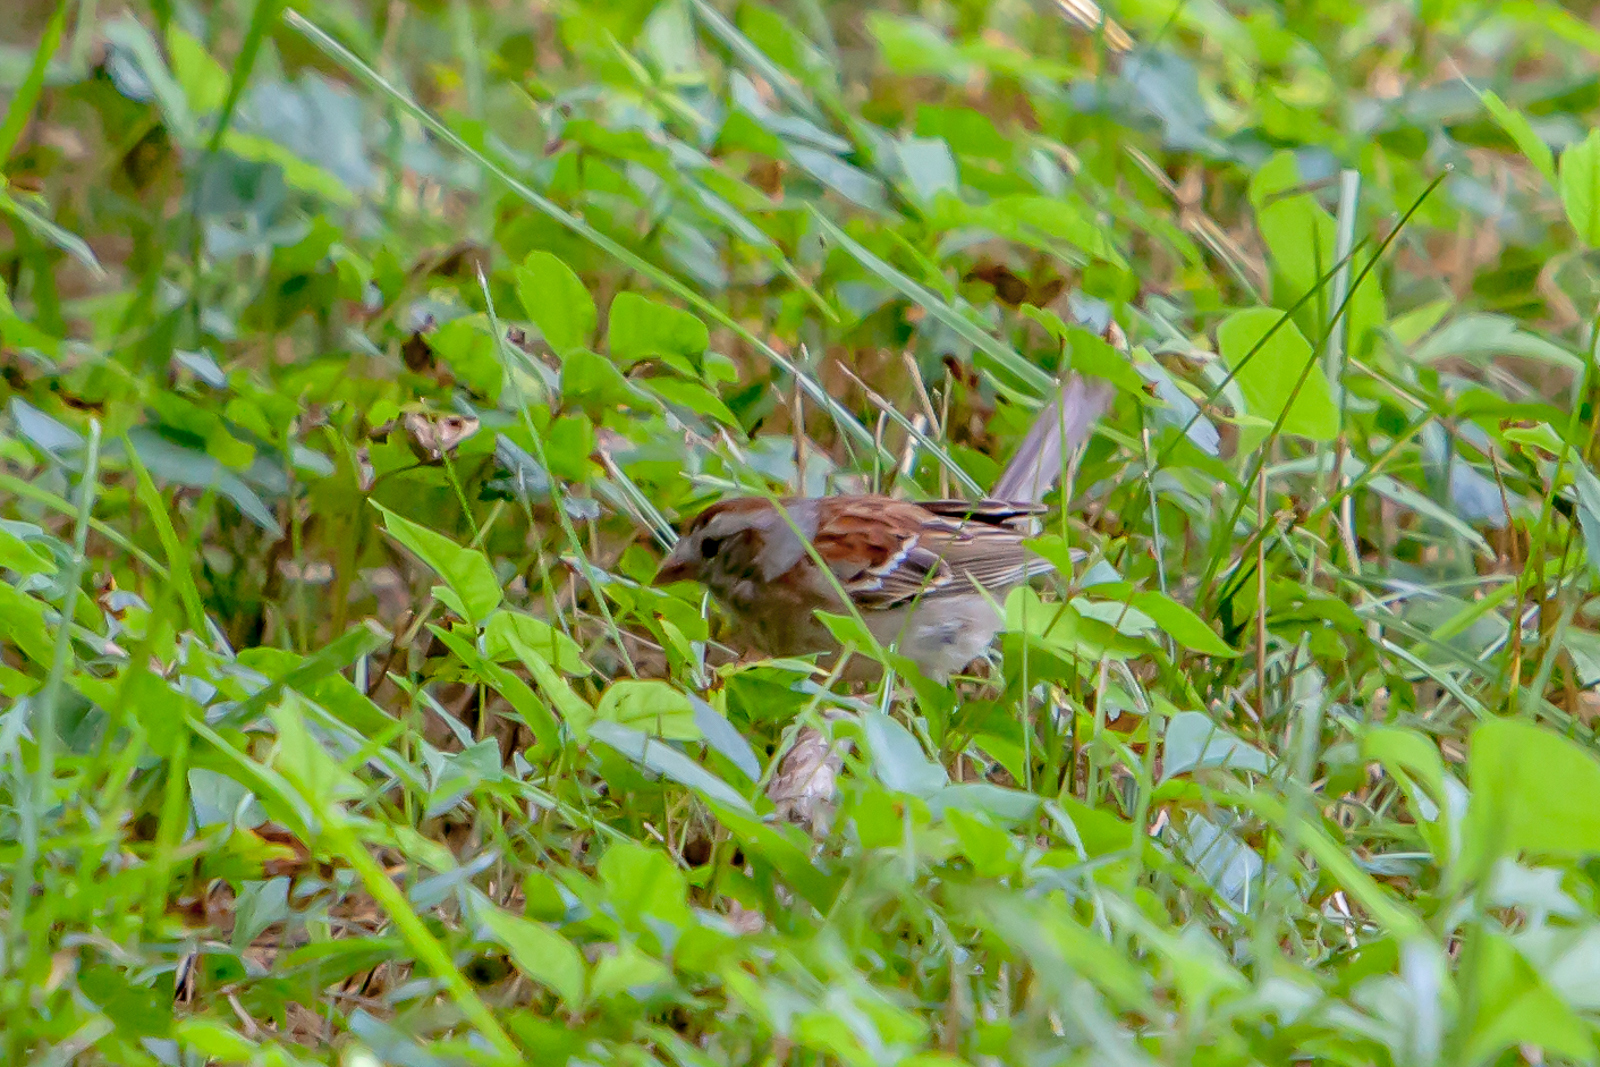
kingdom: Animalia
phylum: Chordata
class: Aves
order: Passeriformes
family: Passerellidae
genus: Spizella
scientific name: Spizella pusilla
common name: Field sparrow
